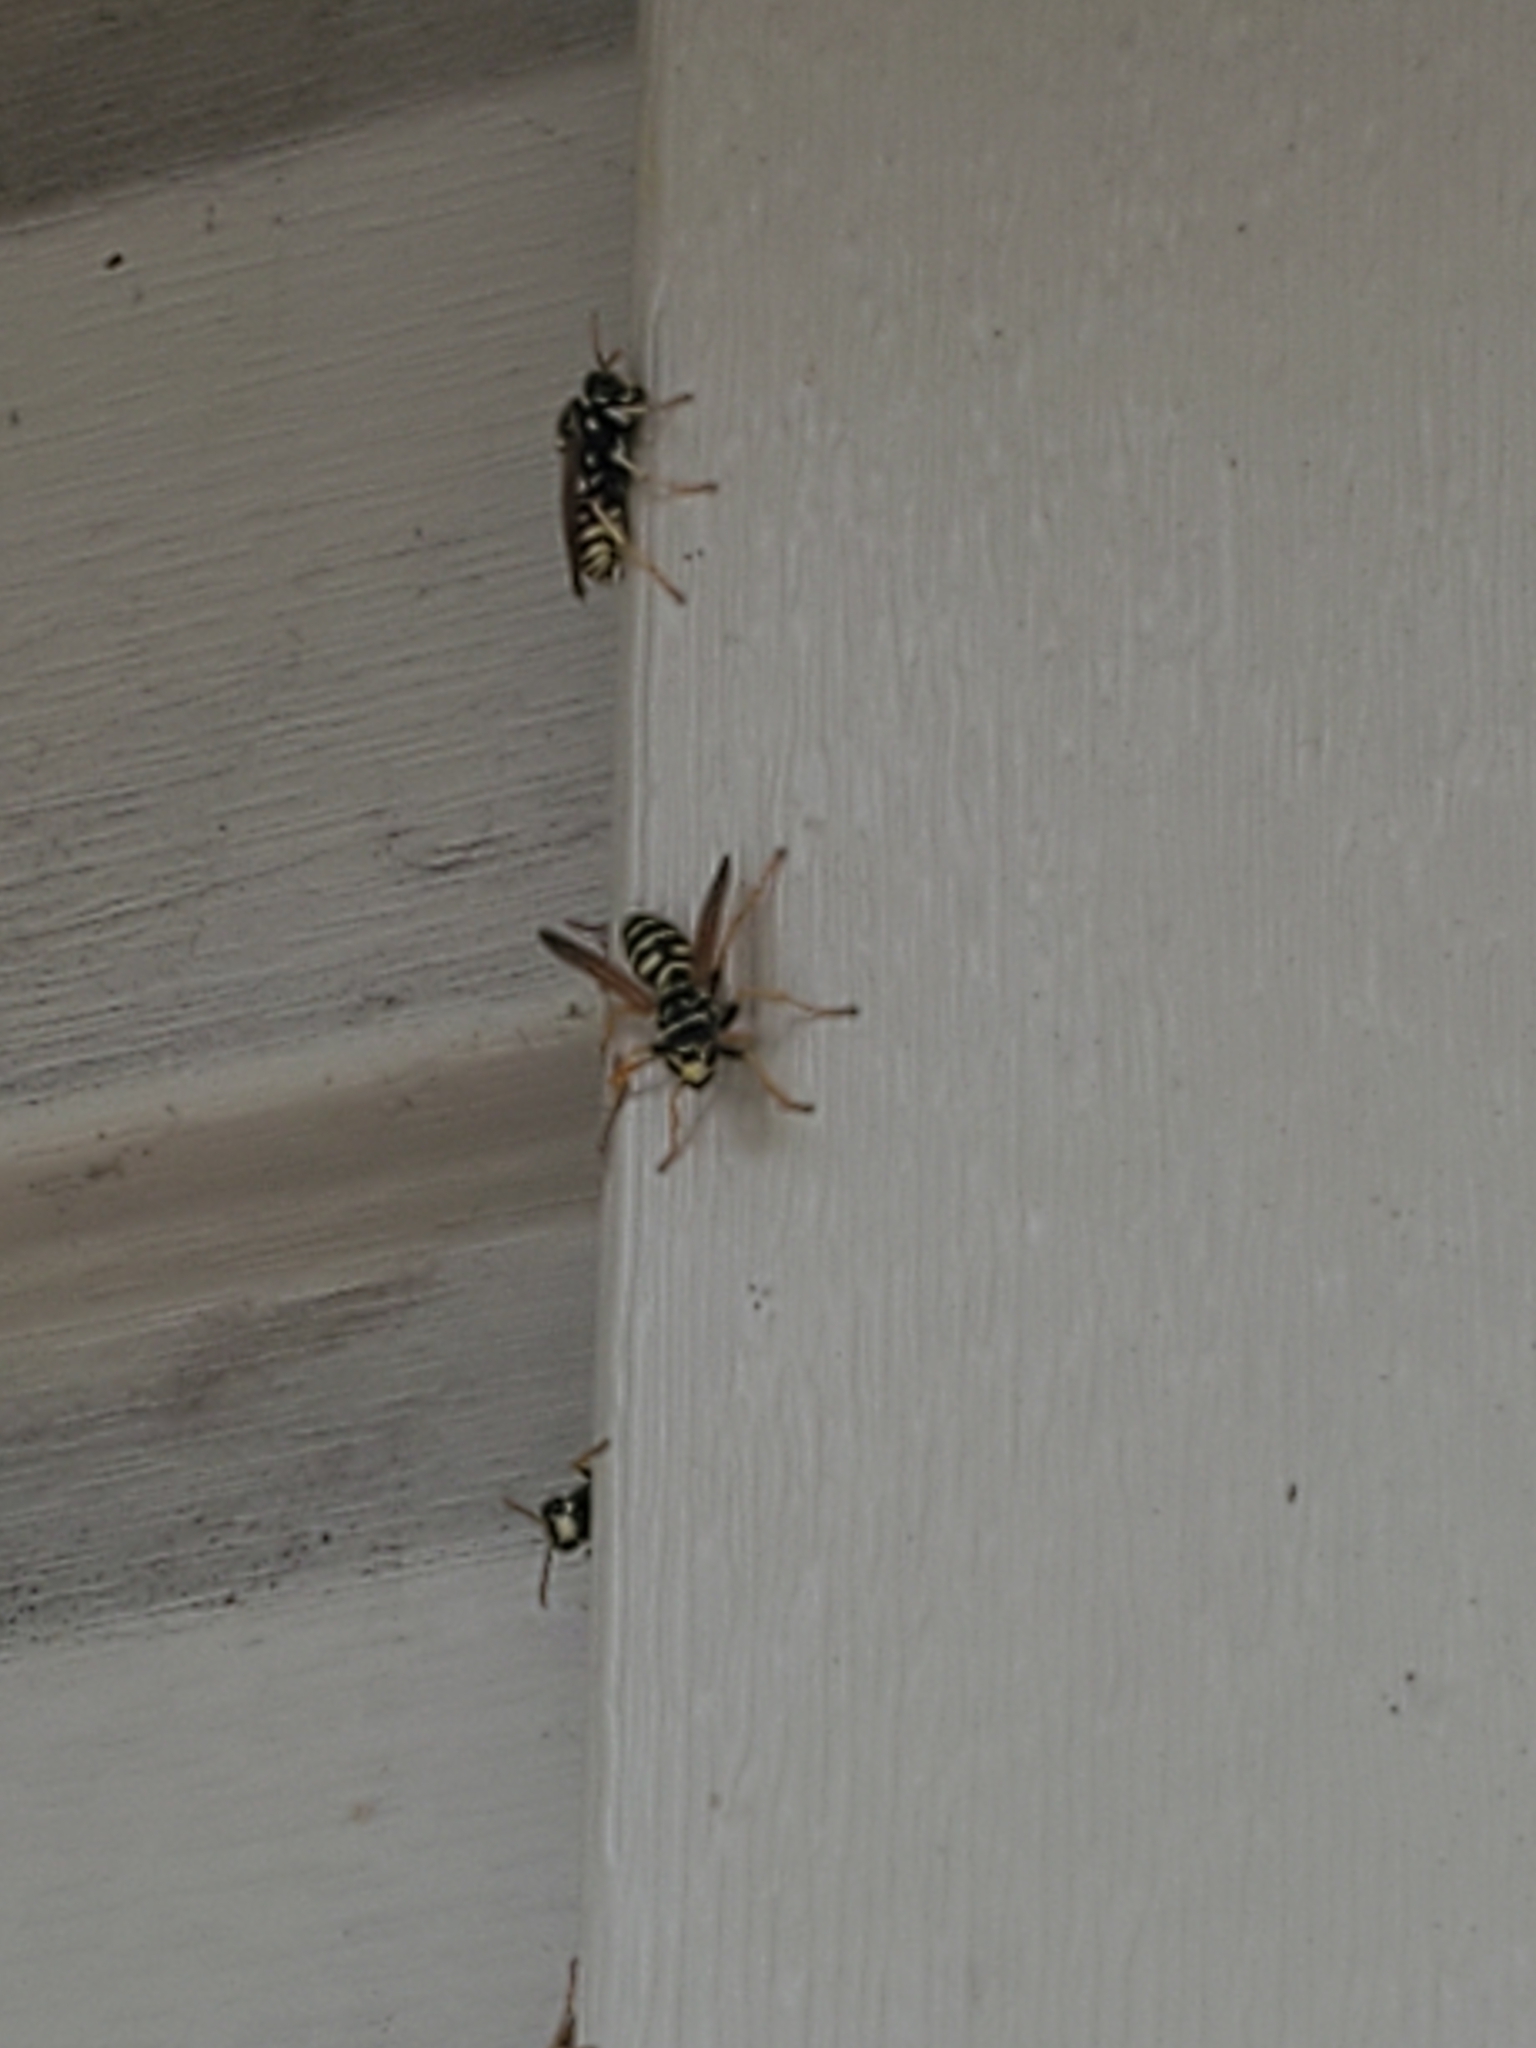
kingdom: Animalia
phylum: Arthropoda
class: Insecta
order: Hymenoptera
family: Eumenidae
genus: Polistes
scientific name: Polistes dominula
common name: Paper wasp
